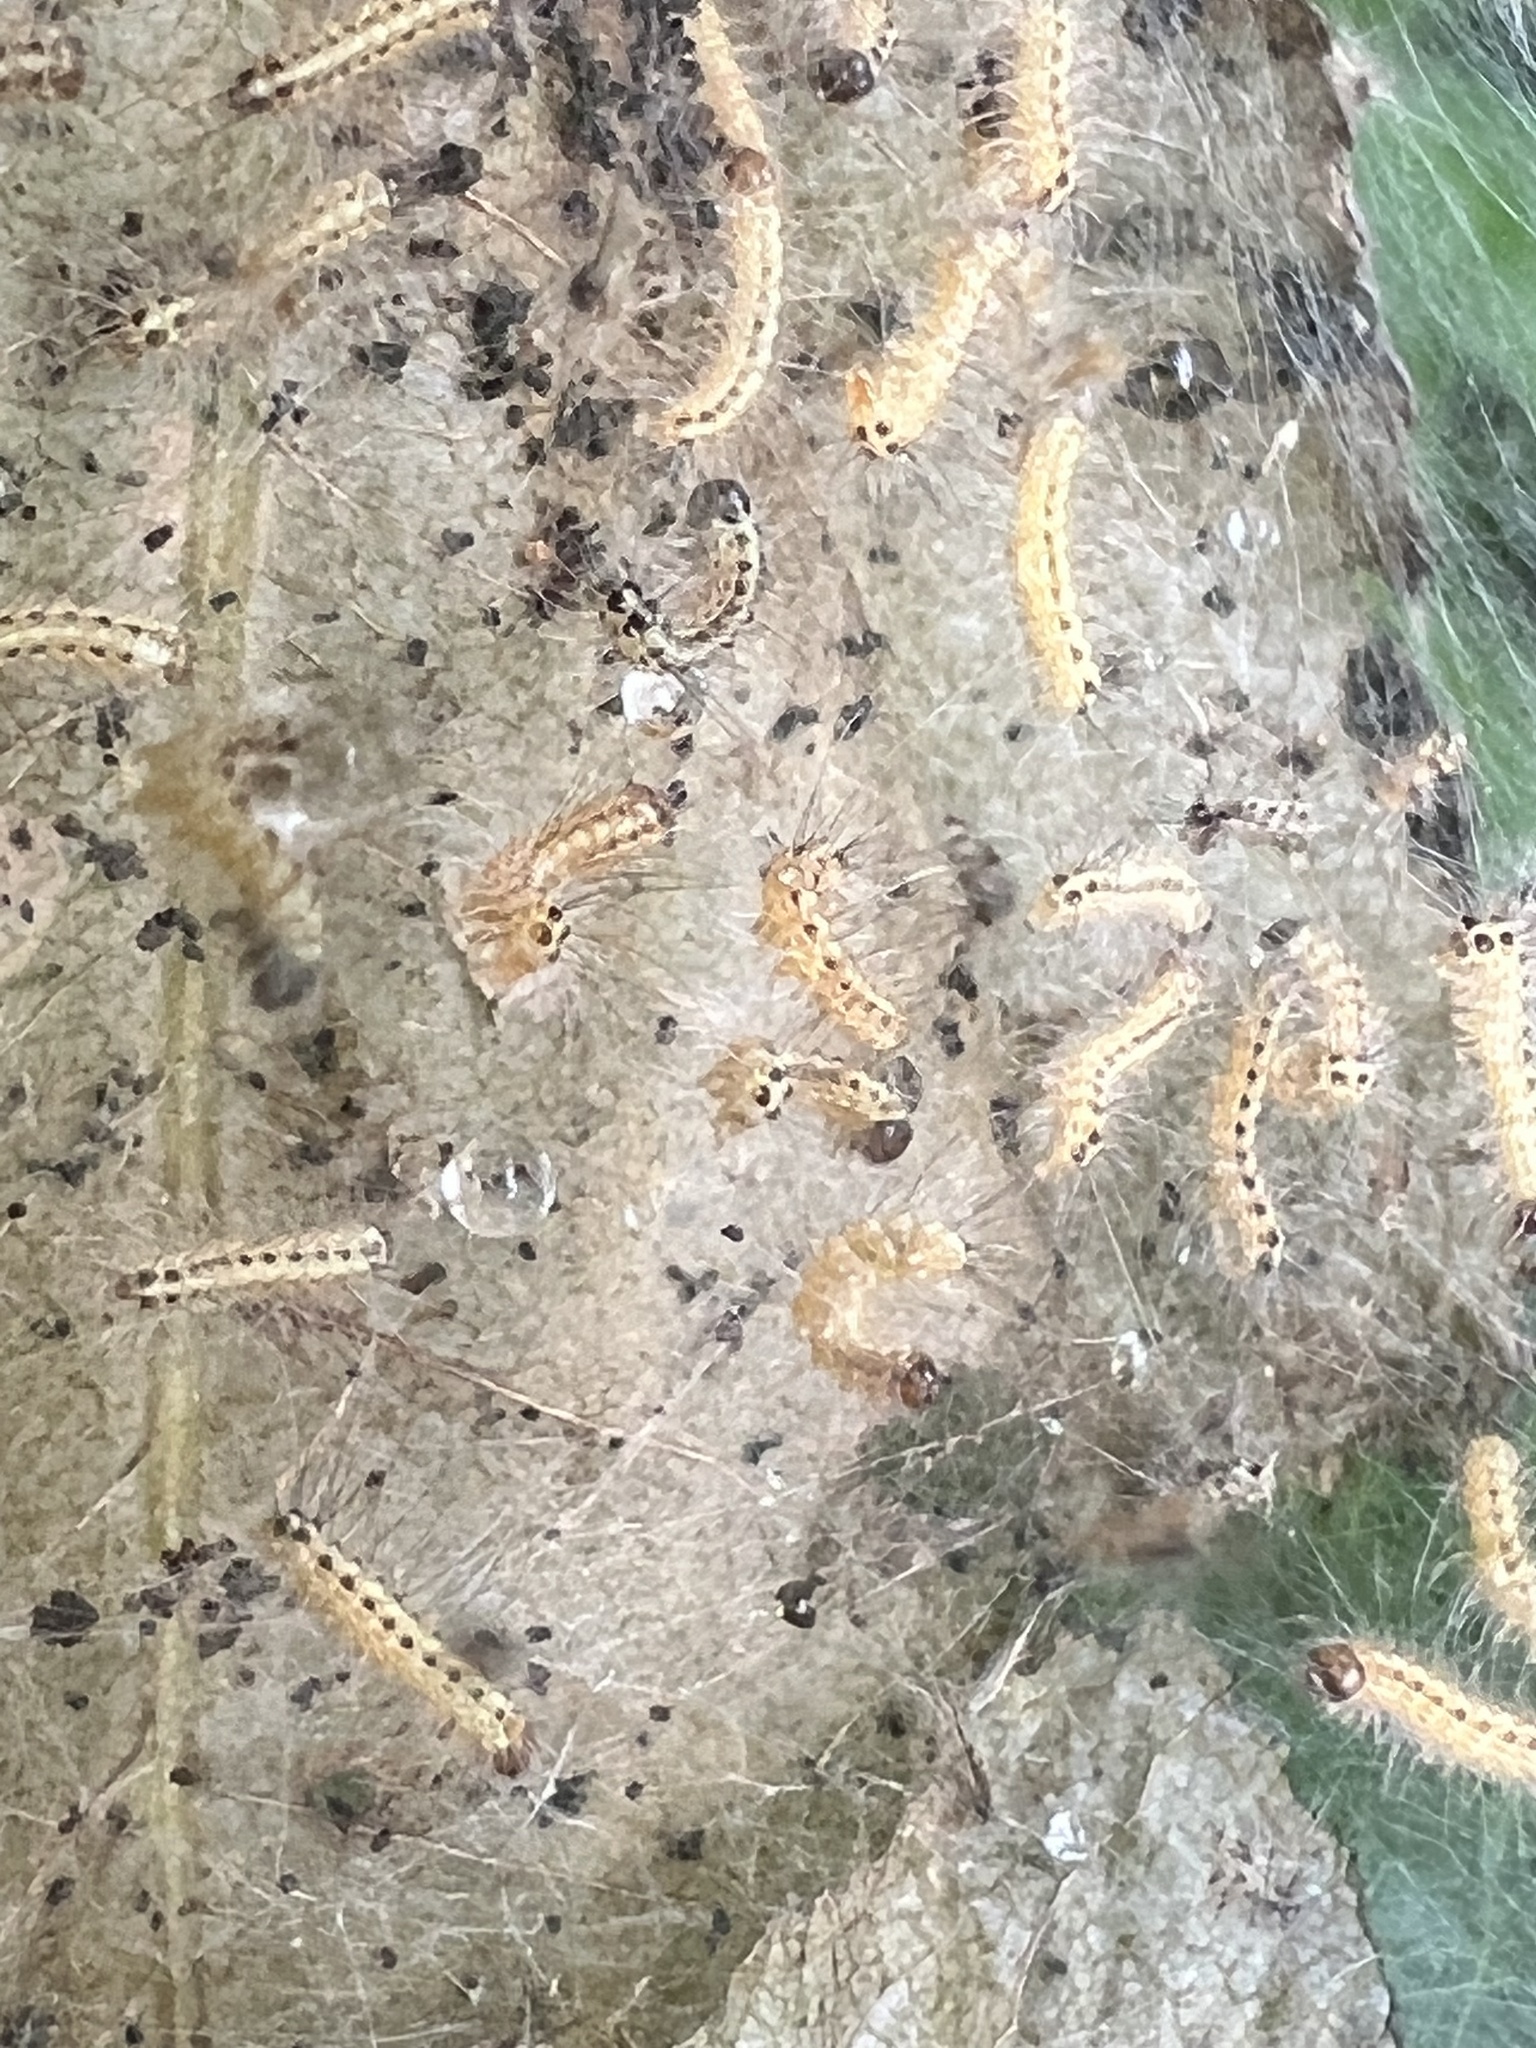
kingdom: Animalia
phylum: Arthropoda
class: Insecta
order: Lepidoptera
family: Erebidae
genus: Hyphantria
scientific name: Hyphantria cunea
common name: American white moth
